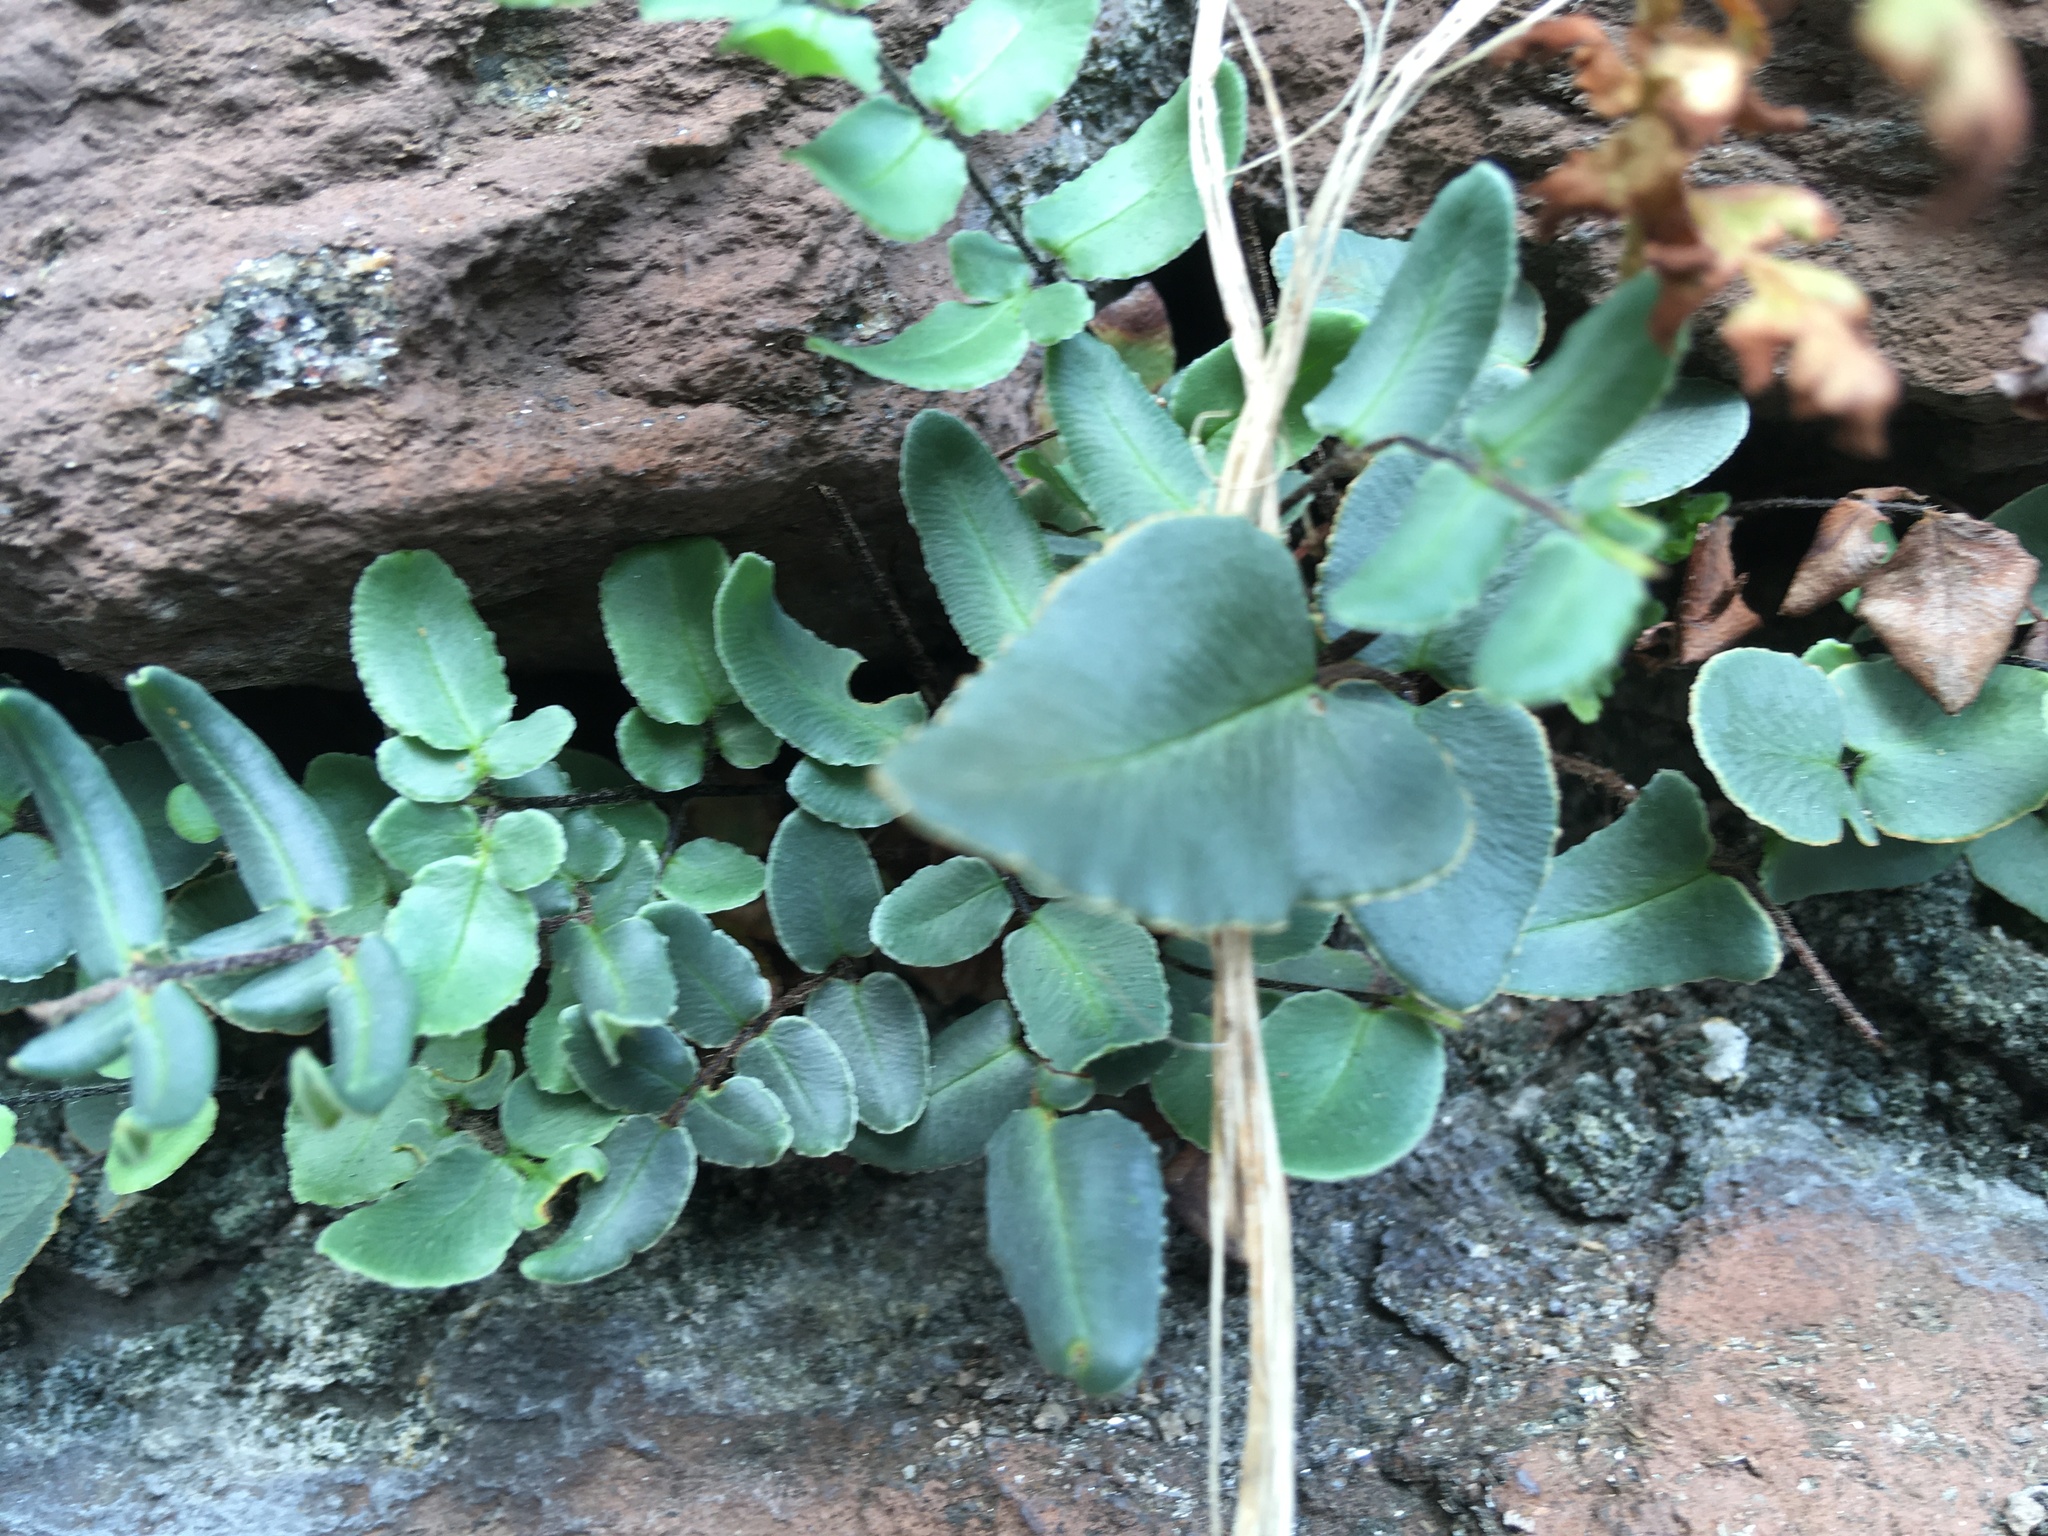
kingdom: Plantae
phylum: Tracheophyta
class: Polypodiopsida
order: Polypodiales
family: Pteridaceae
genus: Pellaea
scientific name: Pellaea atropurpurea
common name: Hairy cliffbrake
